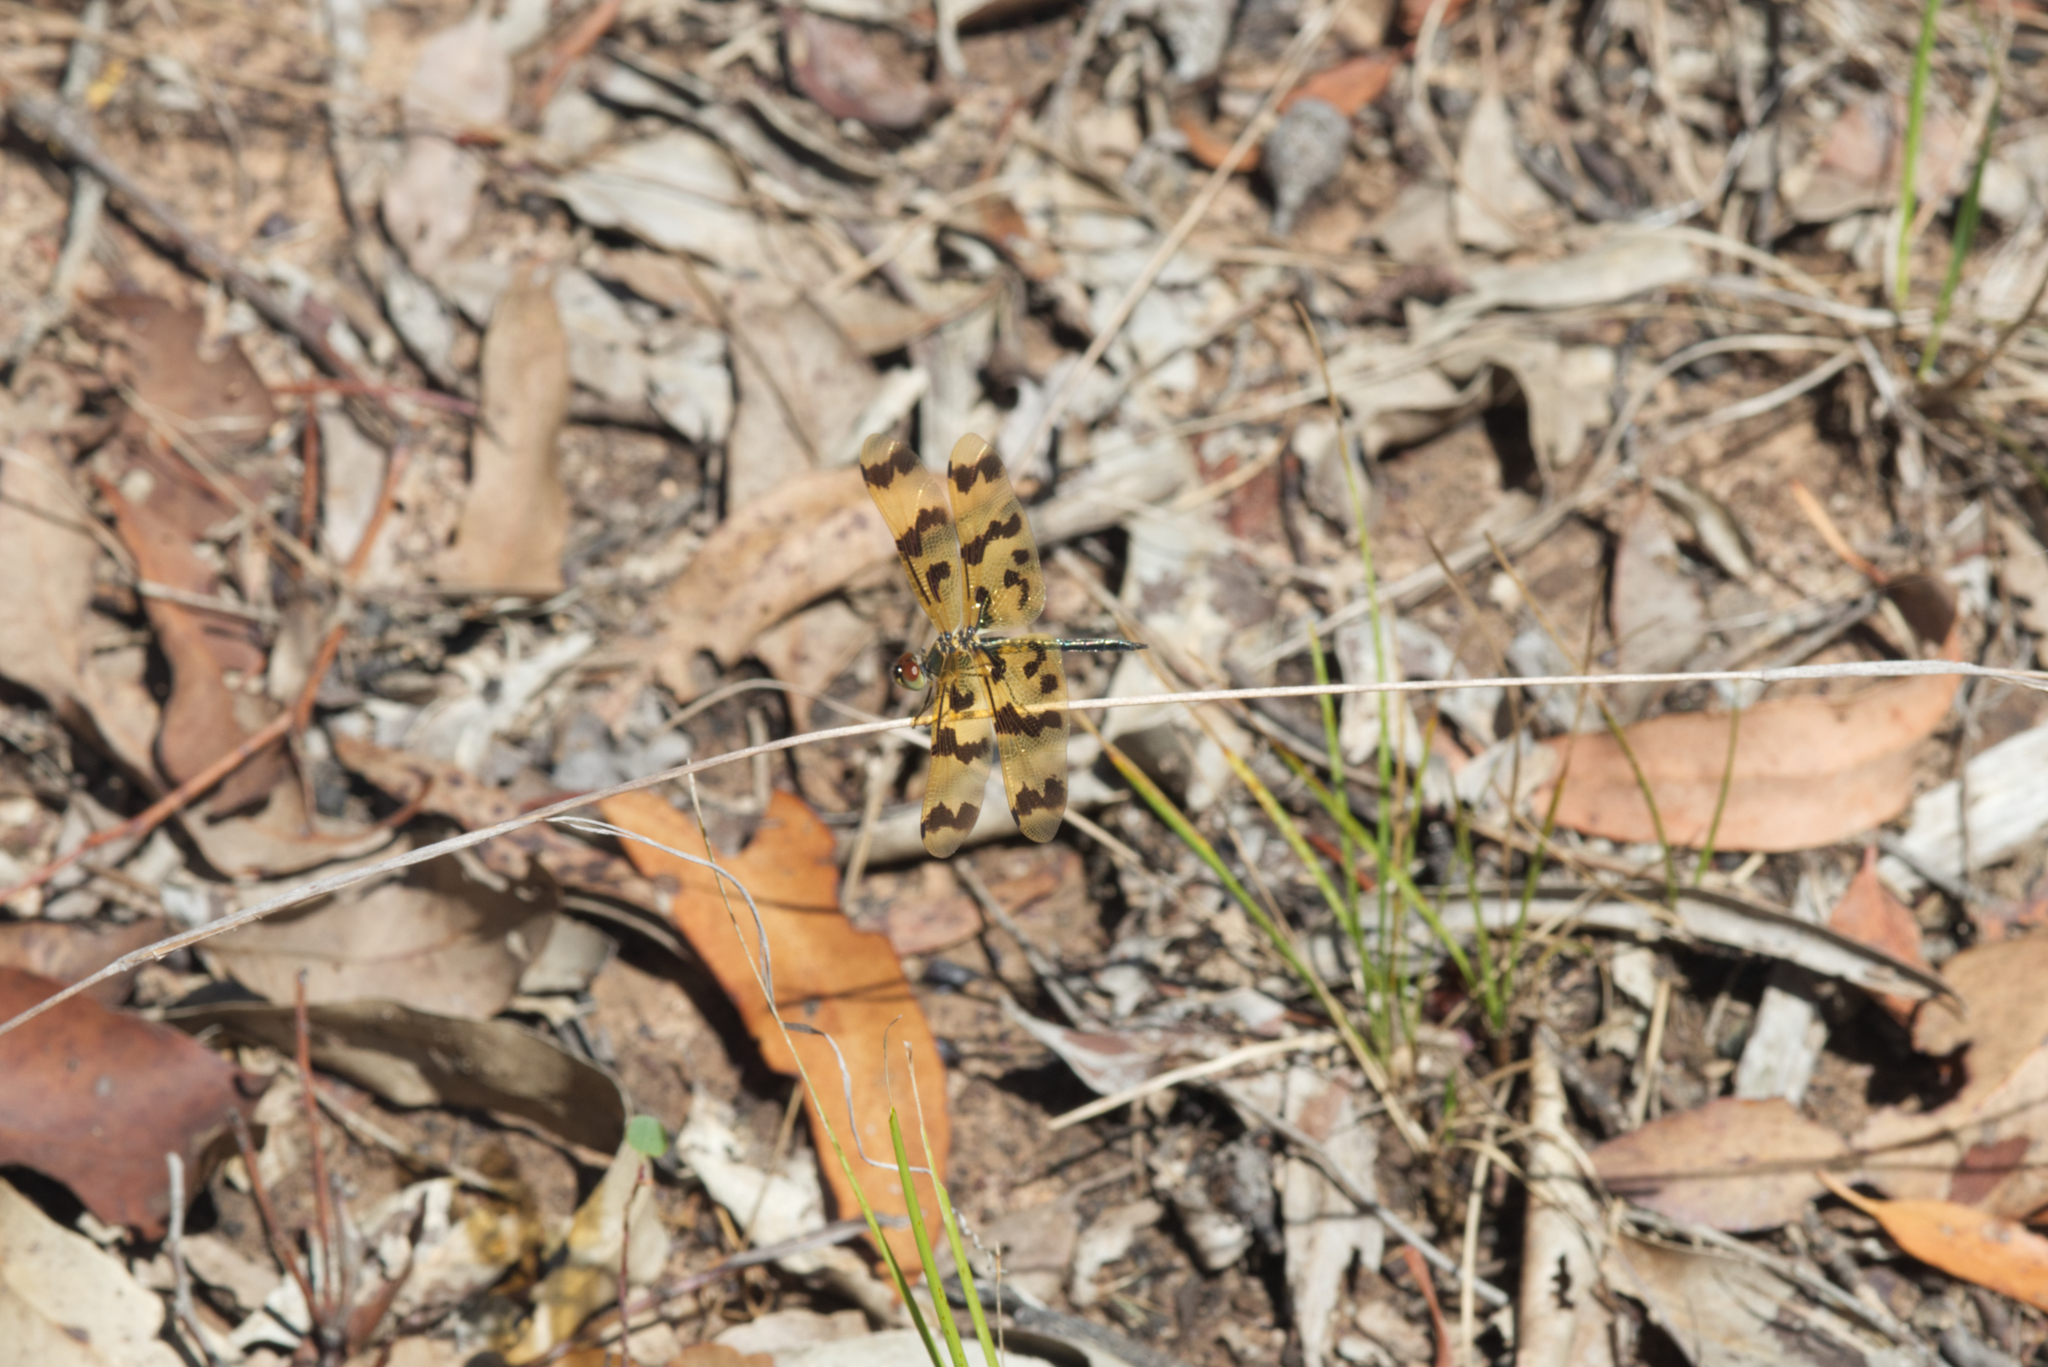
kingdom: Animalia
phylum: Arthropoda
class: Insecta
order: Odonata
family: Libellulidae
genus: Rhyothemis
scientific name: Rhyothemis graphiptera
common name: Graphic flutterer
